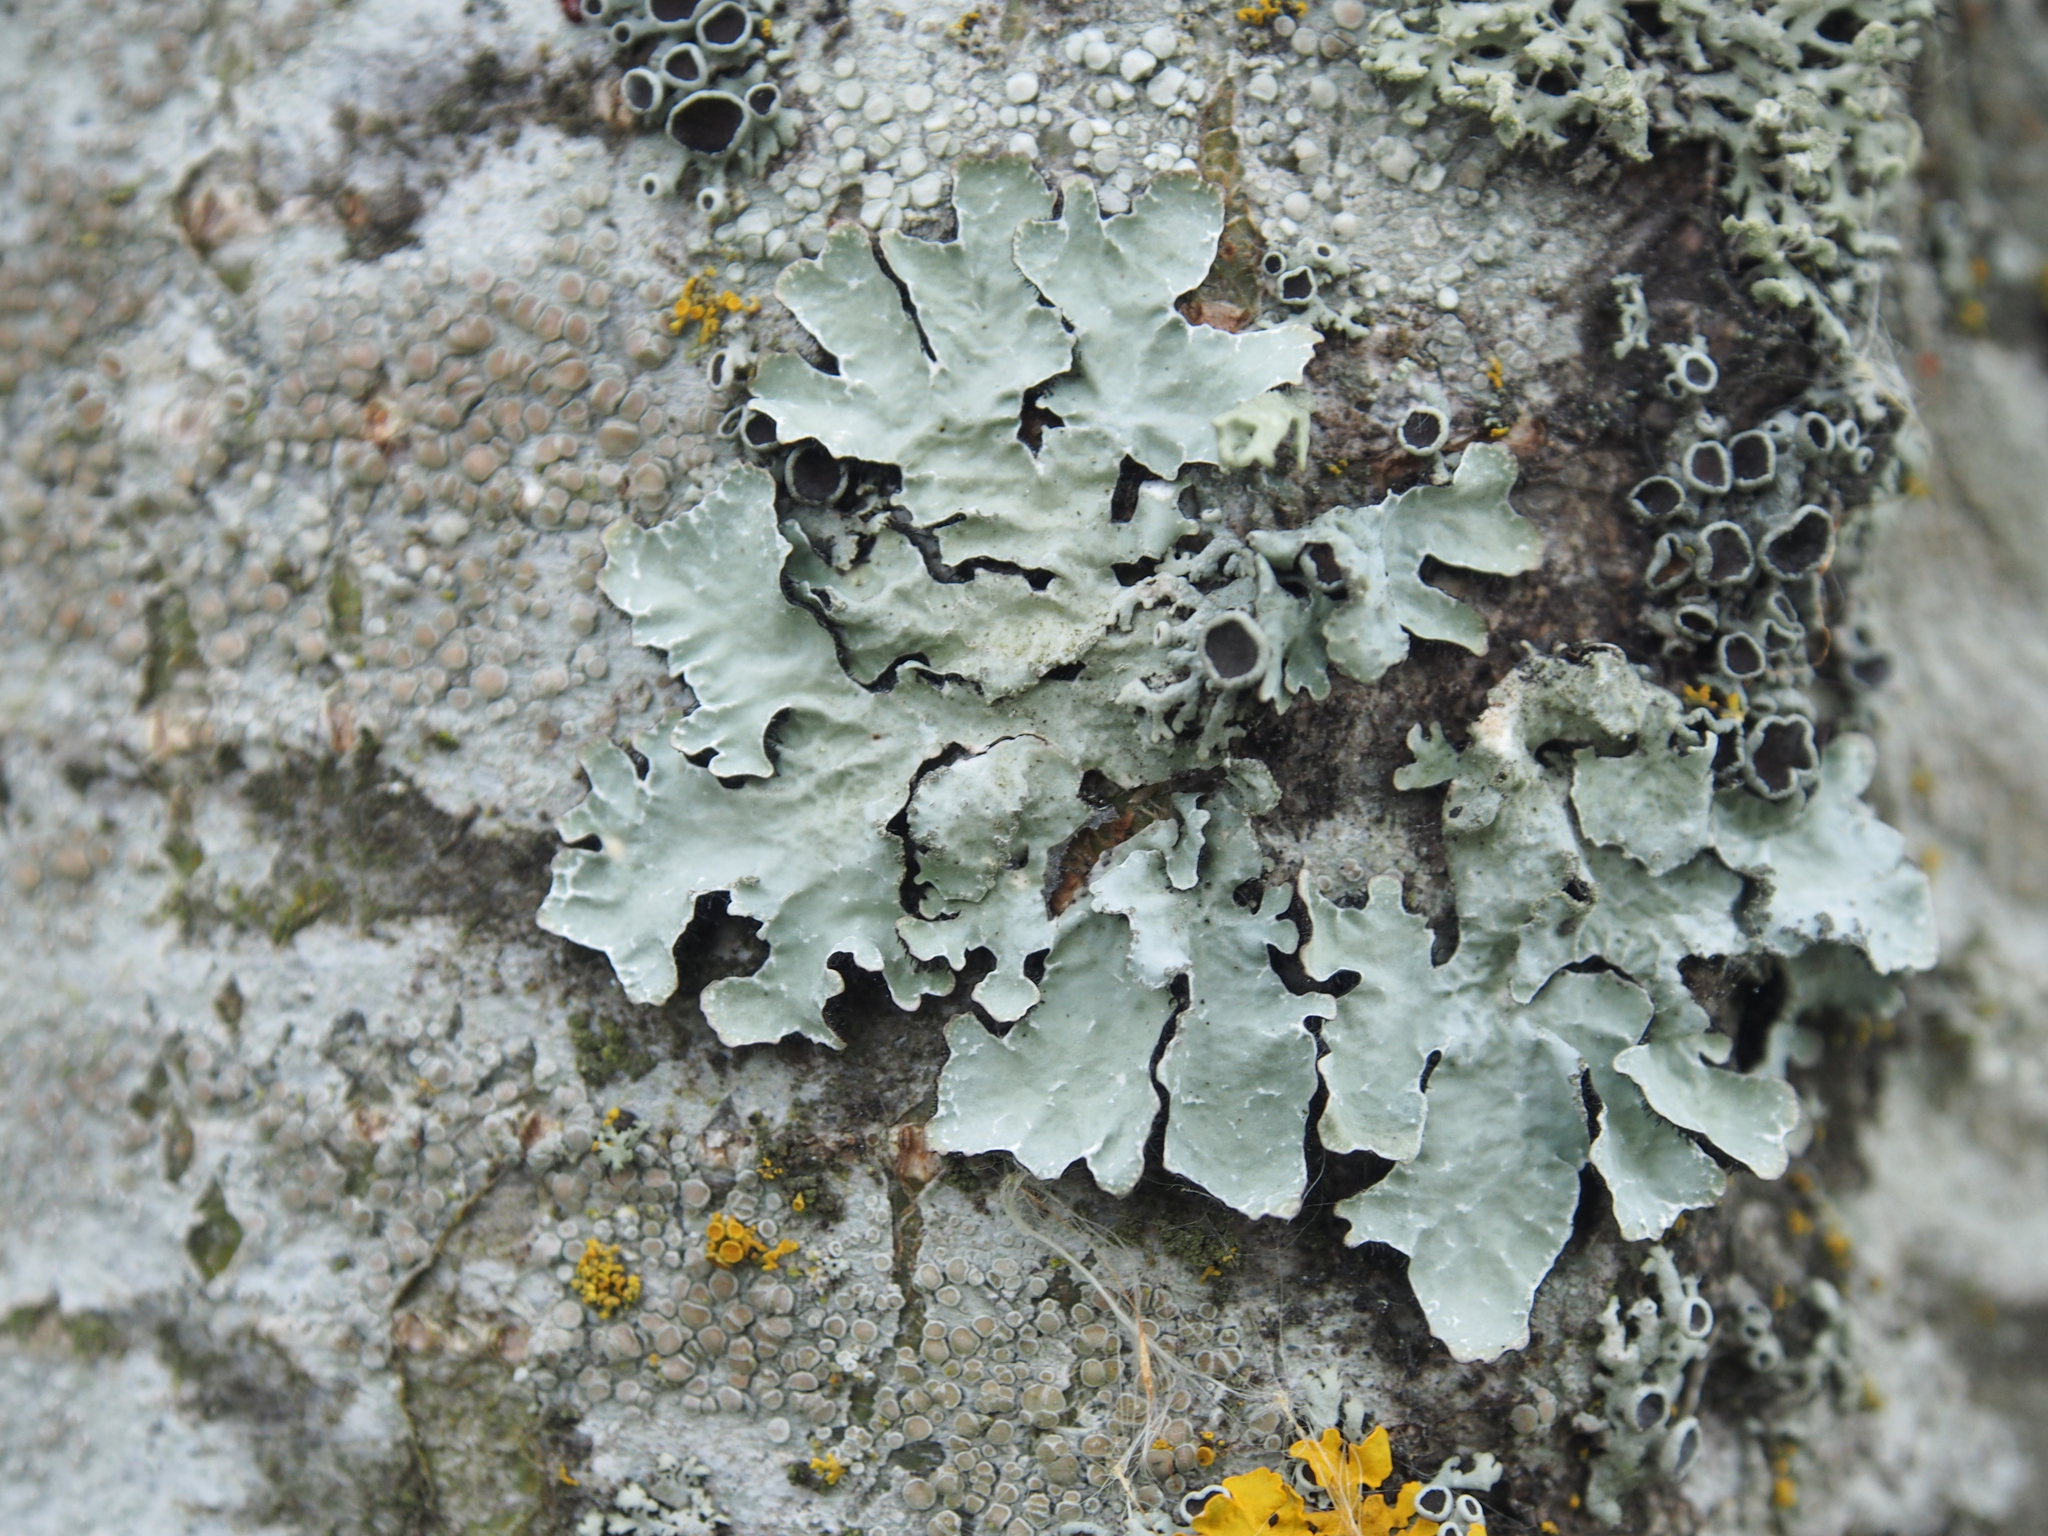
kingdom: Fungi
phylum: Ascomycota
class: Lecanoromycetes
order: Lecanorales
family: Parmeliaceae
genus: Parmelia
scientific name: Parmelia sulcata
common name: Netted shield lichen
